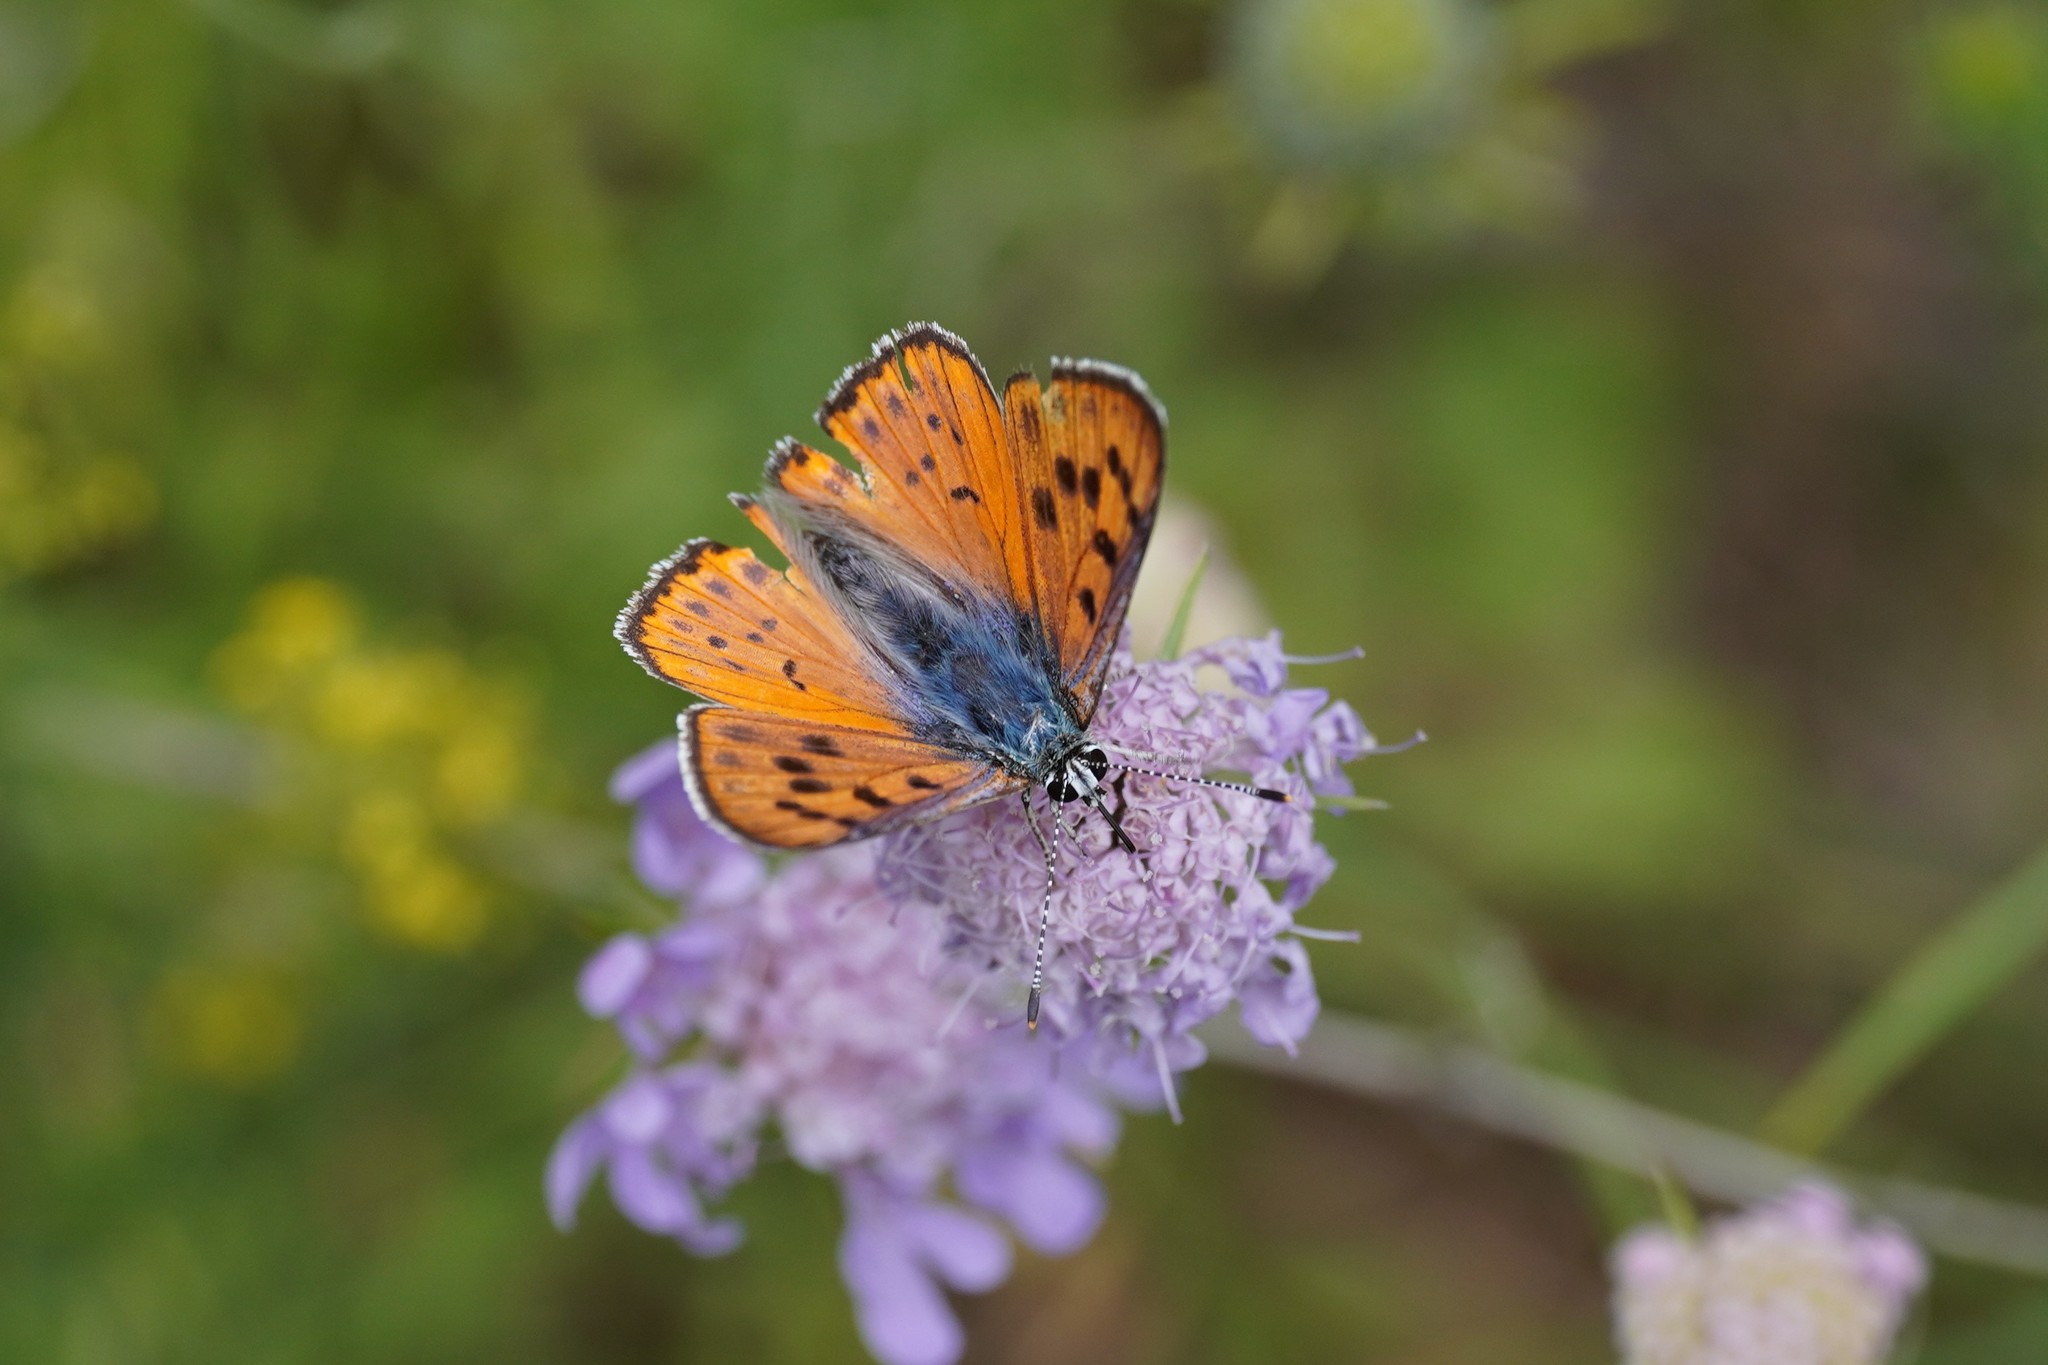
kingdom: Animalia
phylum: Arthropoda
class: Insecta
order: Lepidoptera
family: Lycaenidae
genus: Lycaena
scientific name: Lycaena alciphron
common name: Purple-shot copper
